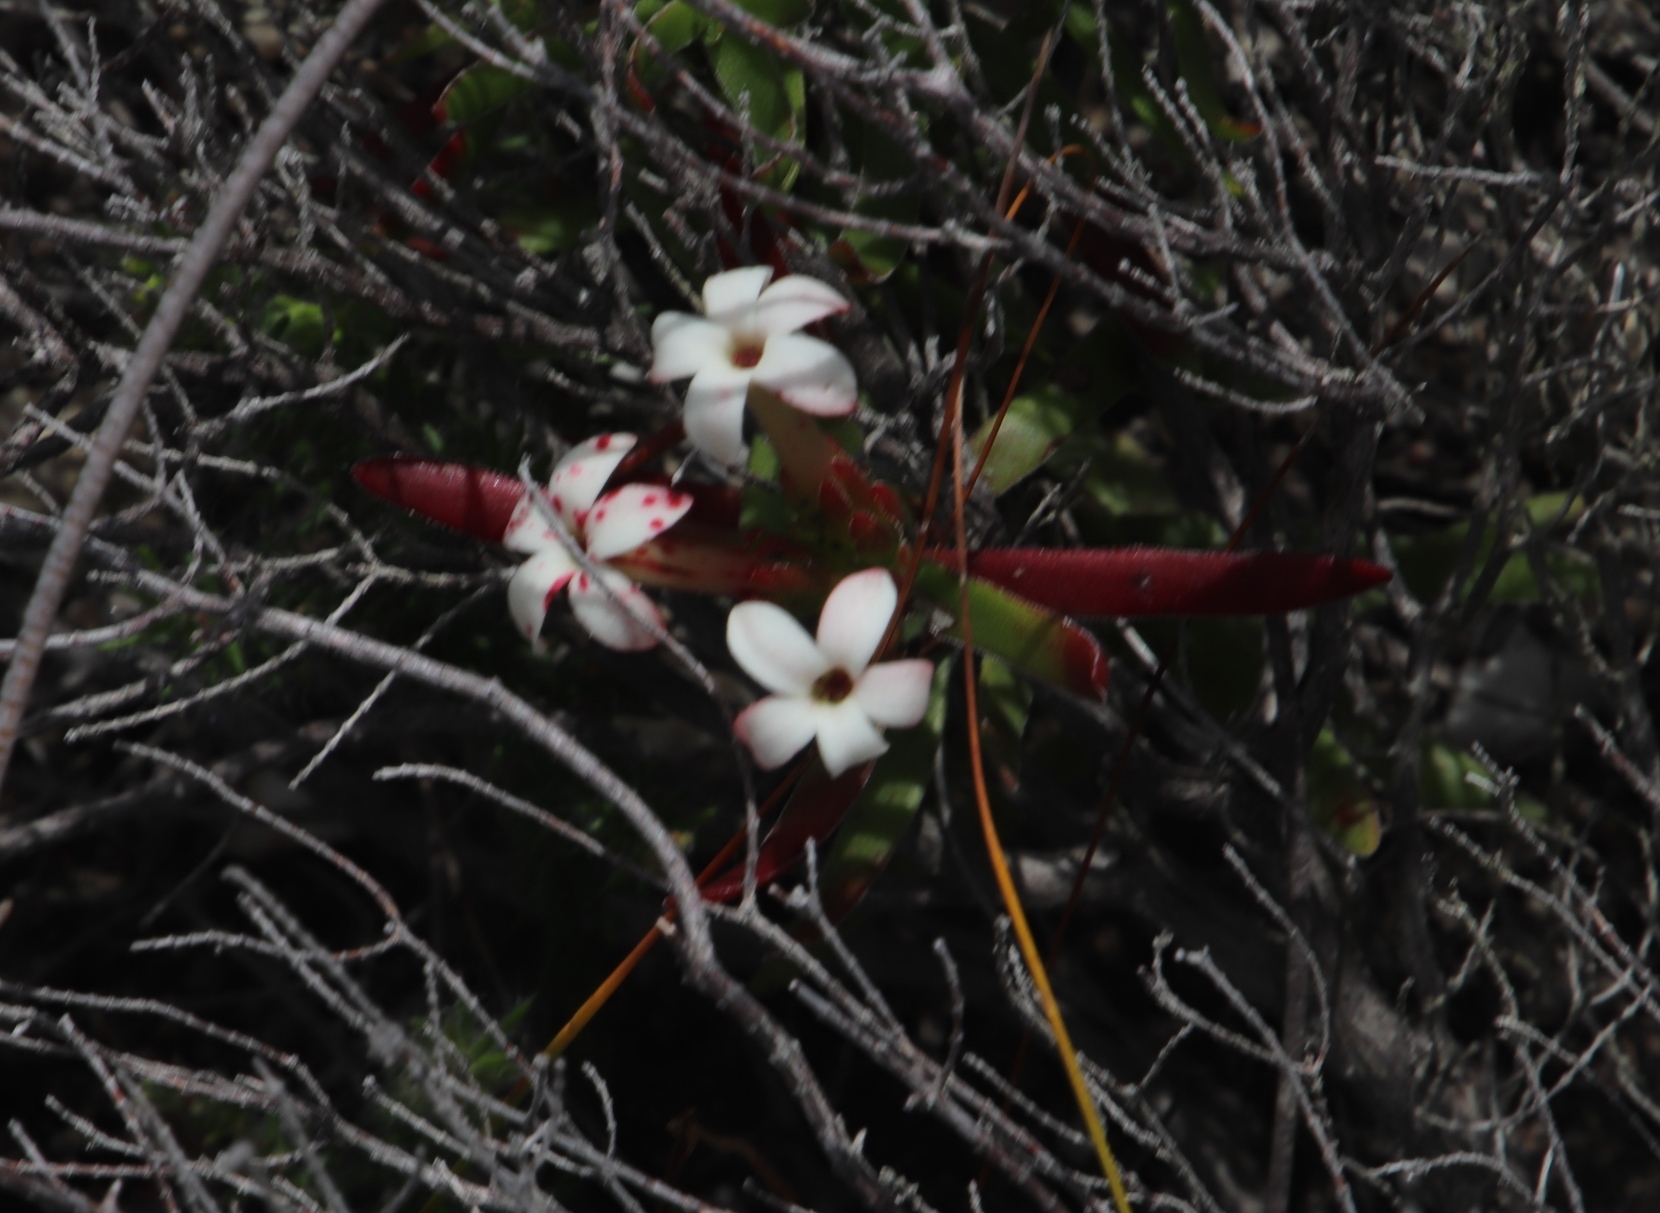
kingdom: Plantae
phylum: Tracheophyta
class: Magnoliopsida
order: Saxifragales
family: Crassulaceae
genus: Crassula
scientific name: Crassula fascicularis
